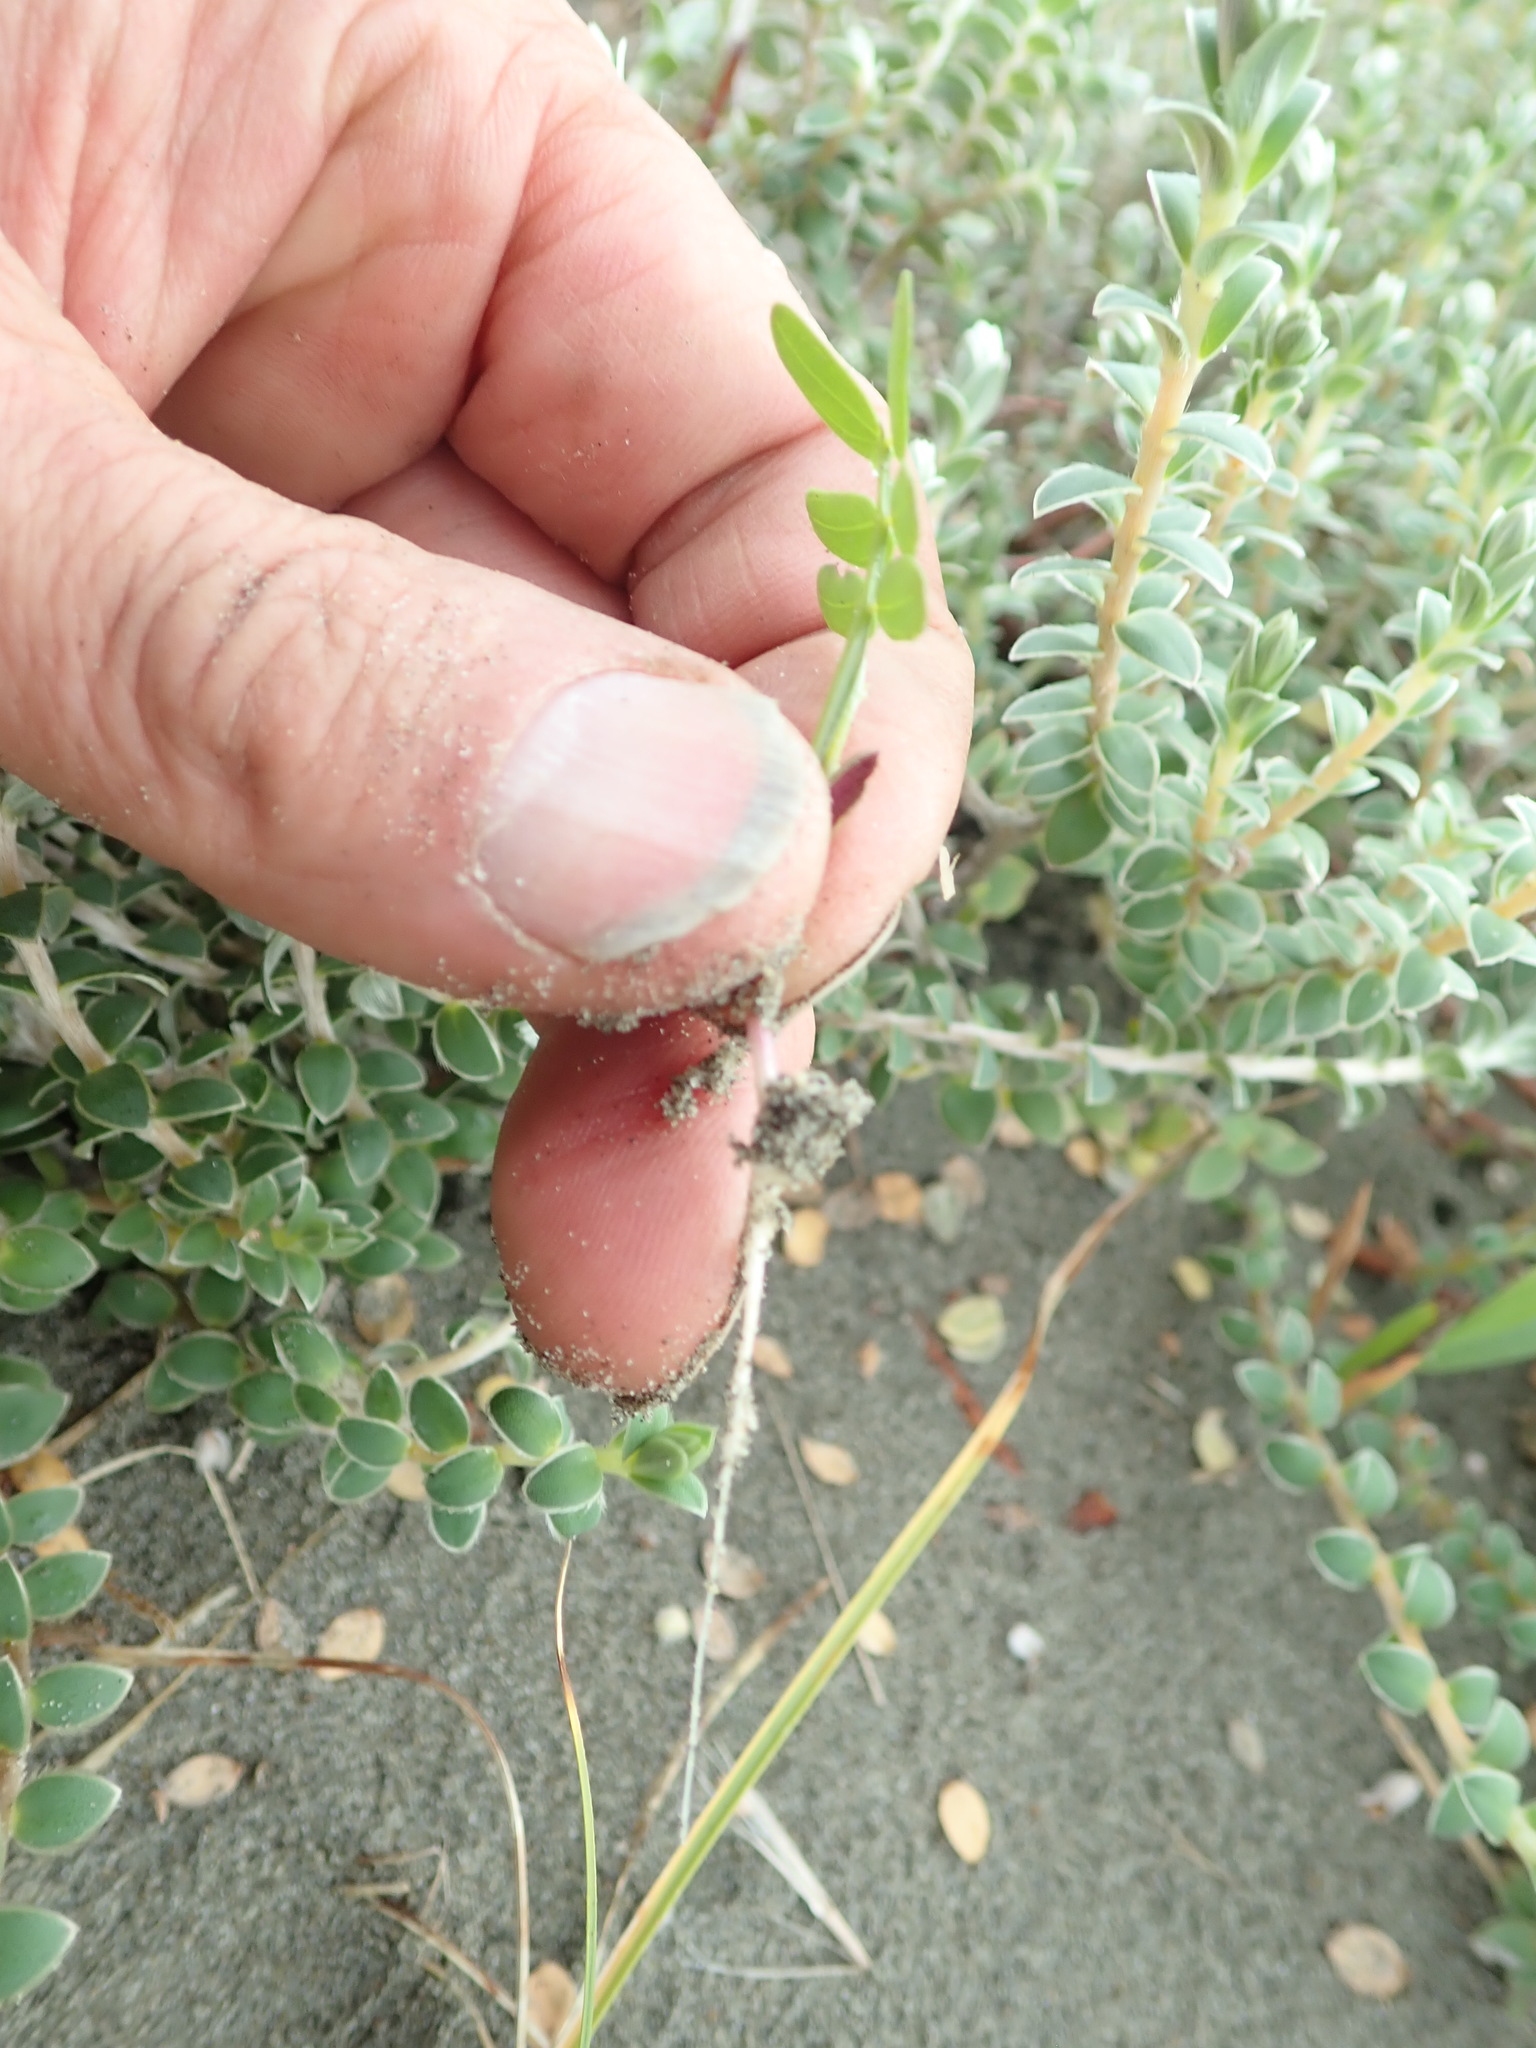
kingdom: Plantae
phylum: Tracheophyta
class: Magnoliopsida
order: Fabales
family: Fabaceae
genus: Acacia
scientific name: Acacia longifolia
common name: Sydney golden wattle
